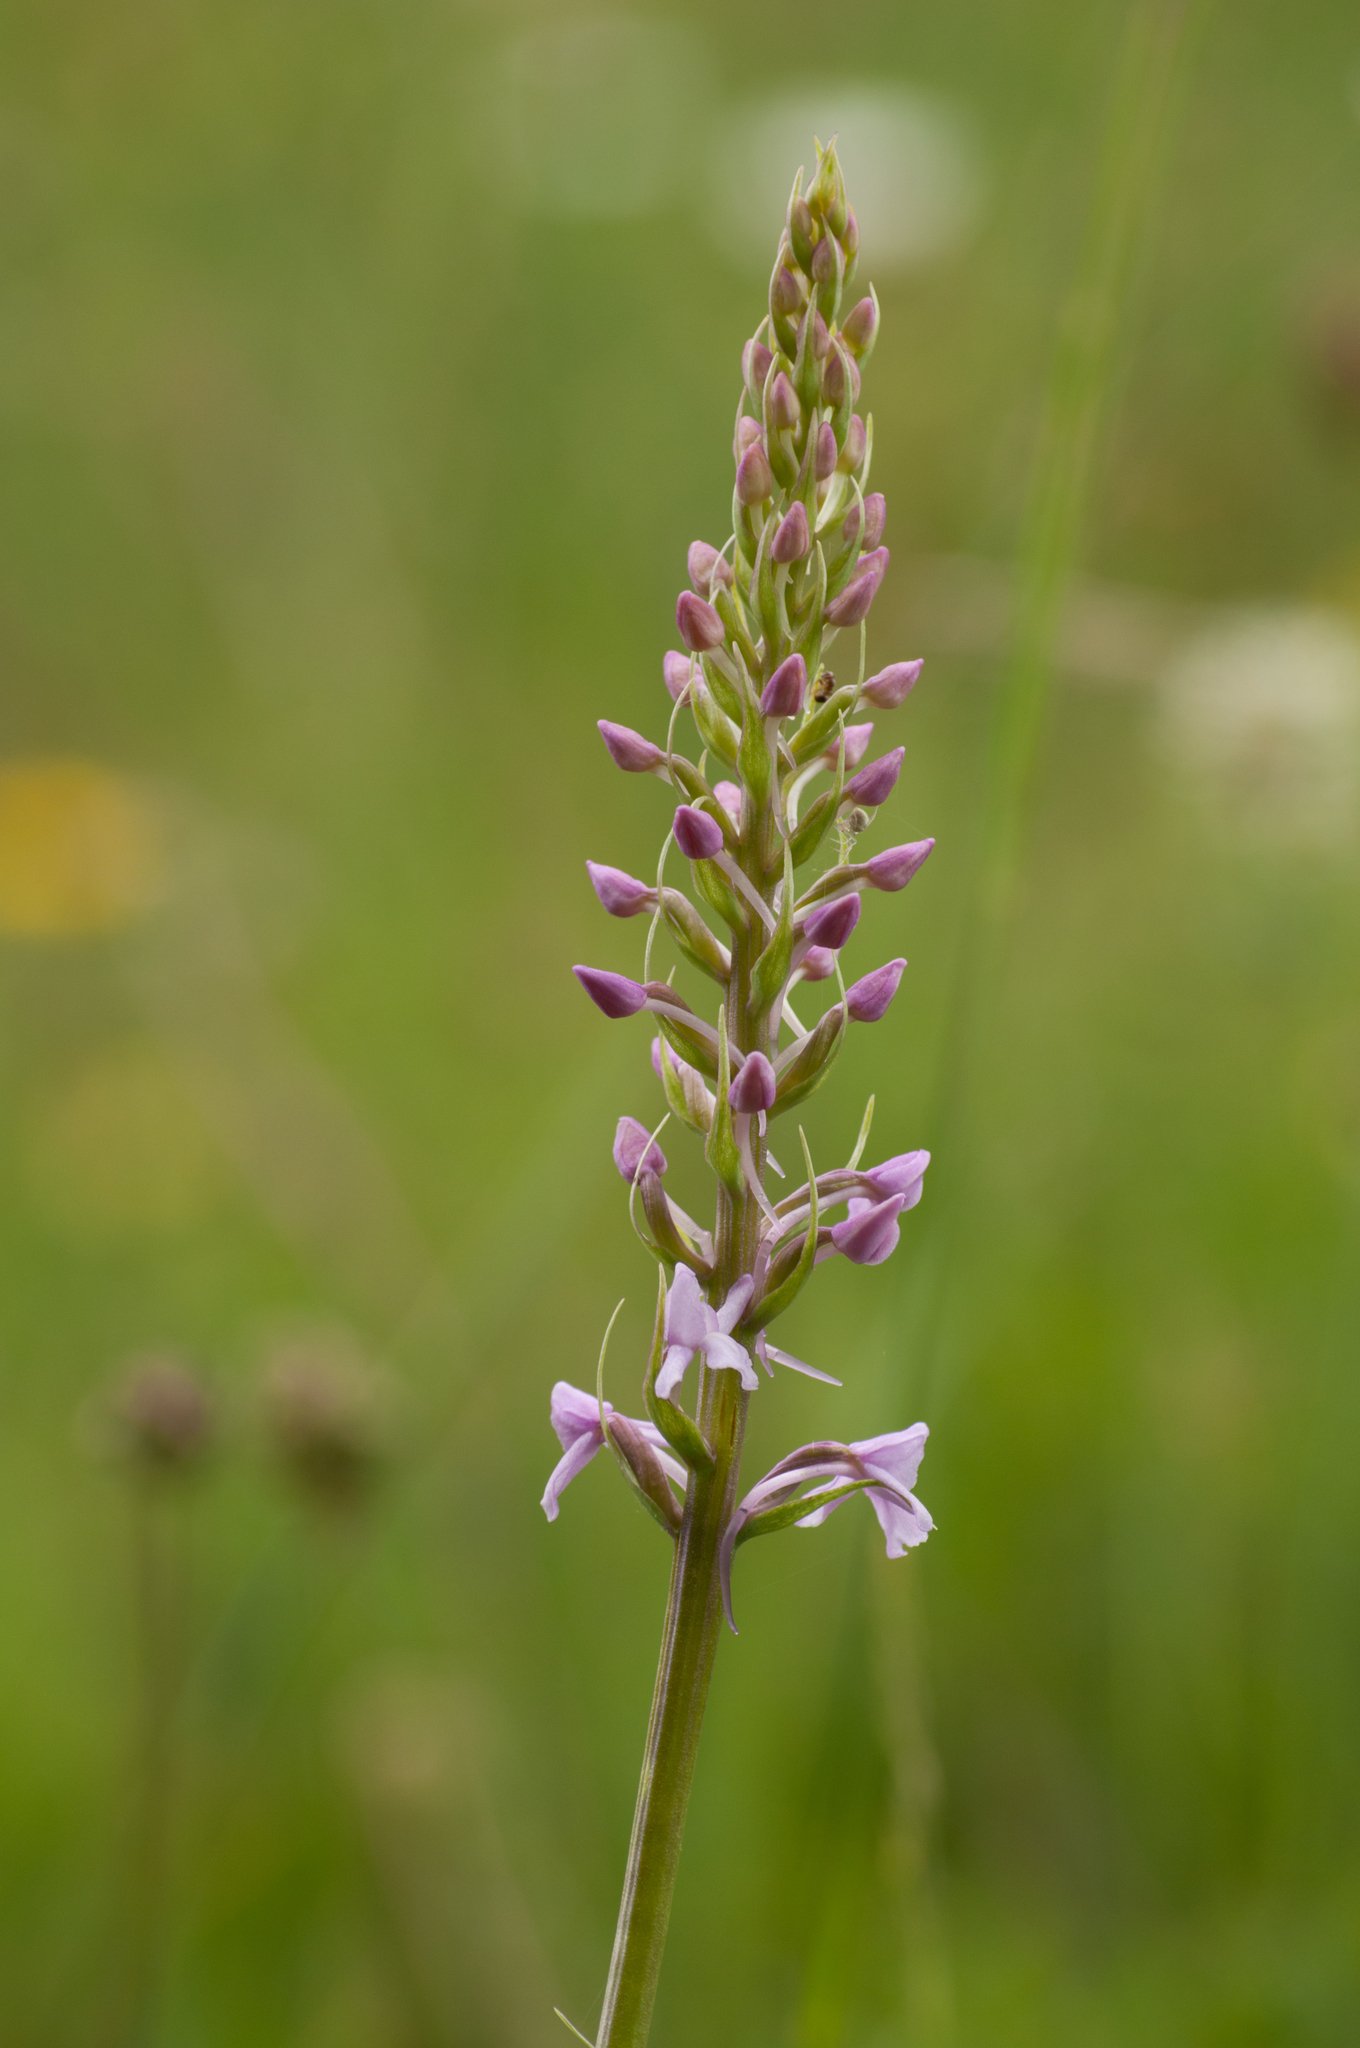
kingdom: Plantae
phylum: Tracheophyta
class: Liliopsida
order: Asparagales
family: Orchidaceae
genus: Gymnadenia
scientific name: Gymnadenia conopsea
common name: Fragrant orchid
